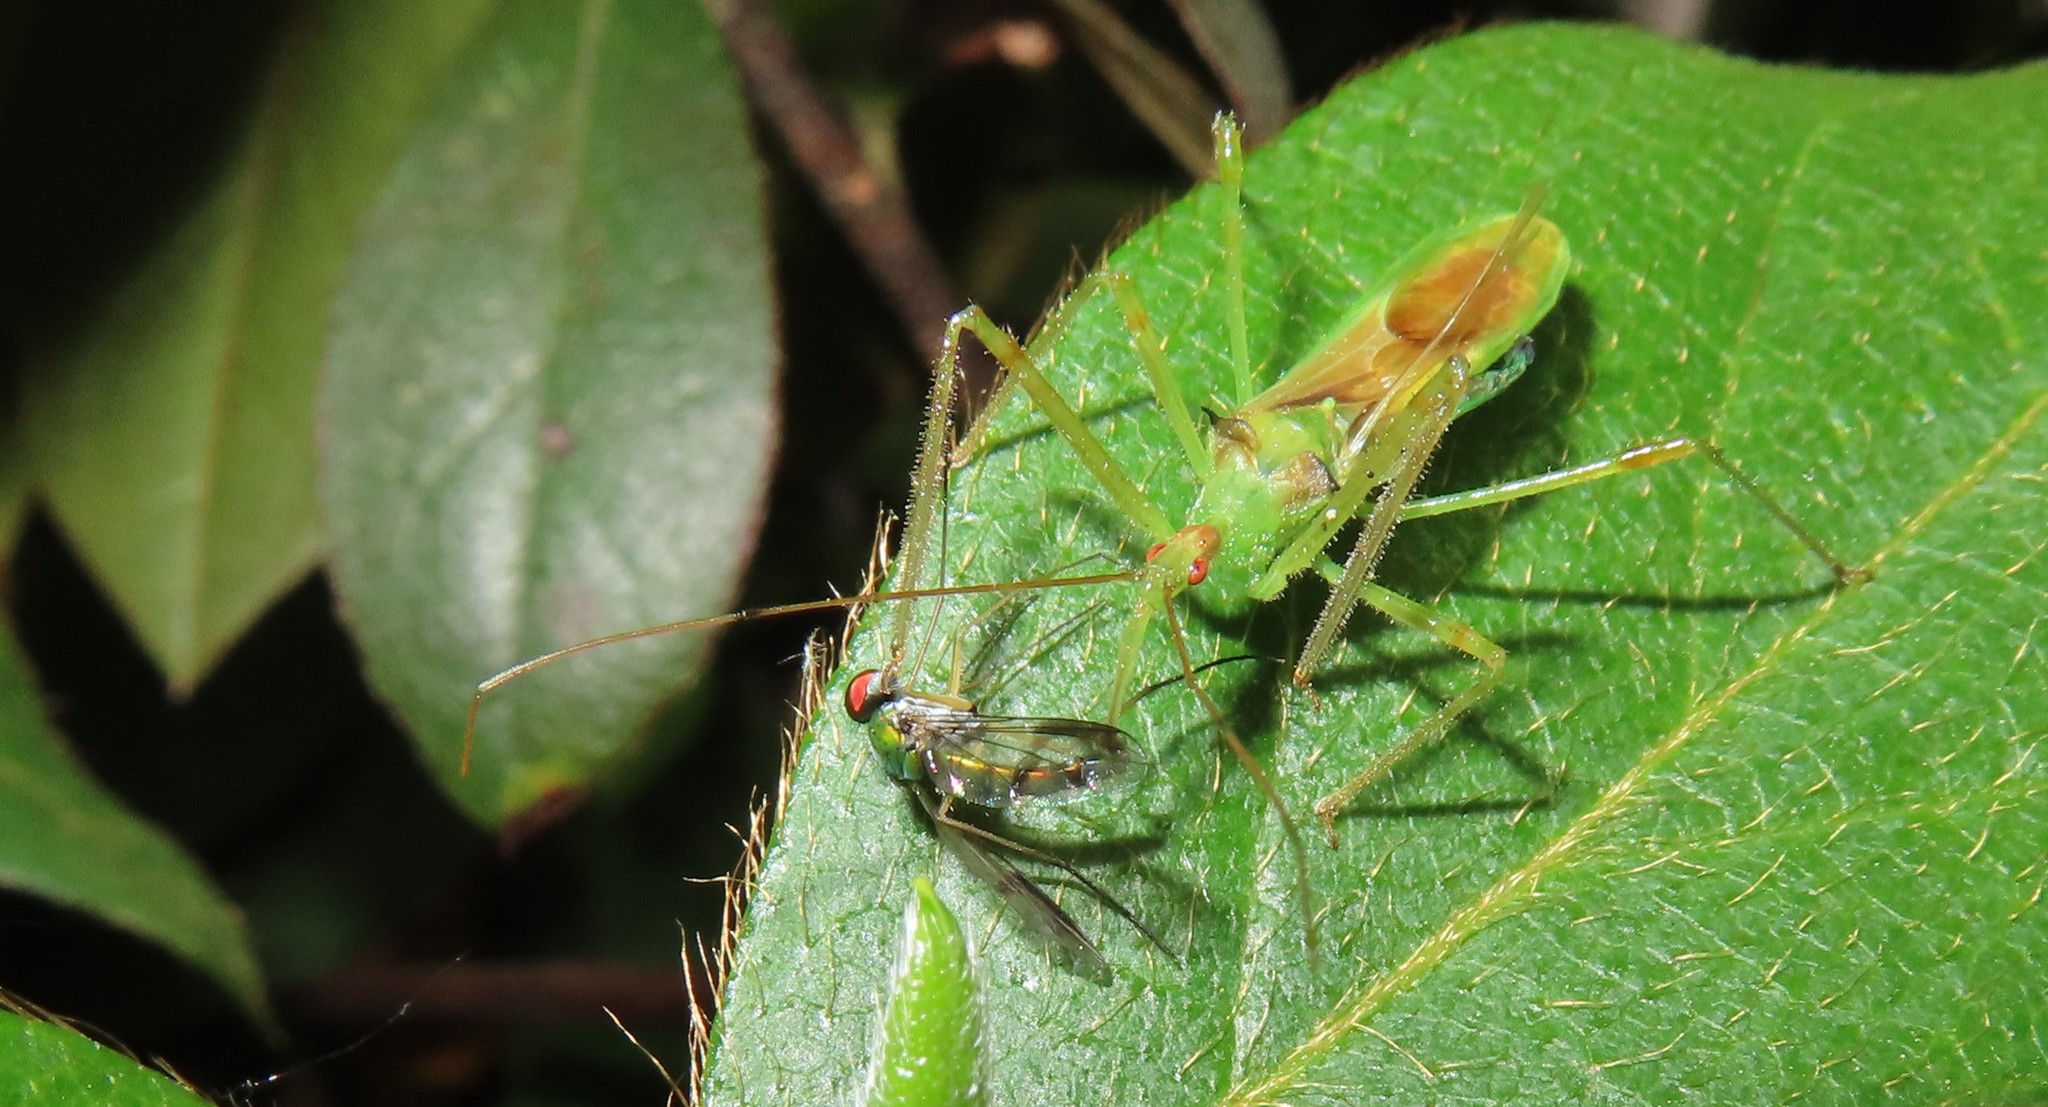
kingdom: Animalia
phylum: Arthropoda
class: Insecta
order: Hemiptera
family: Reduviidae
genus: Zelus
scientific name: Zelus luridus
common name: Pale green assassin bug
